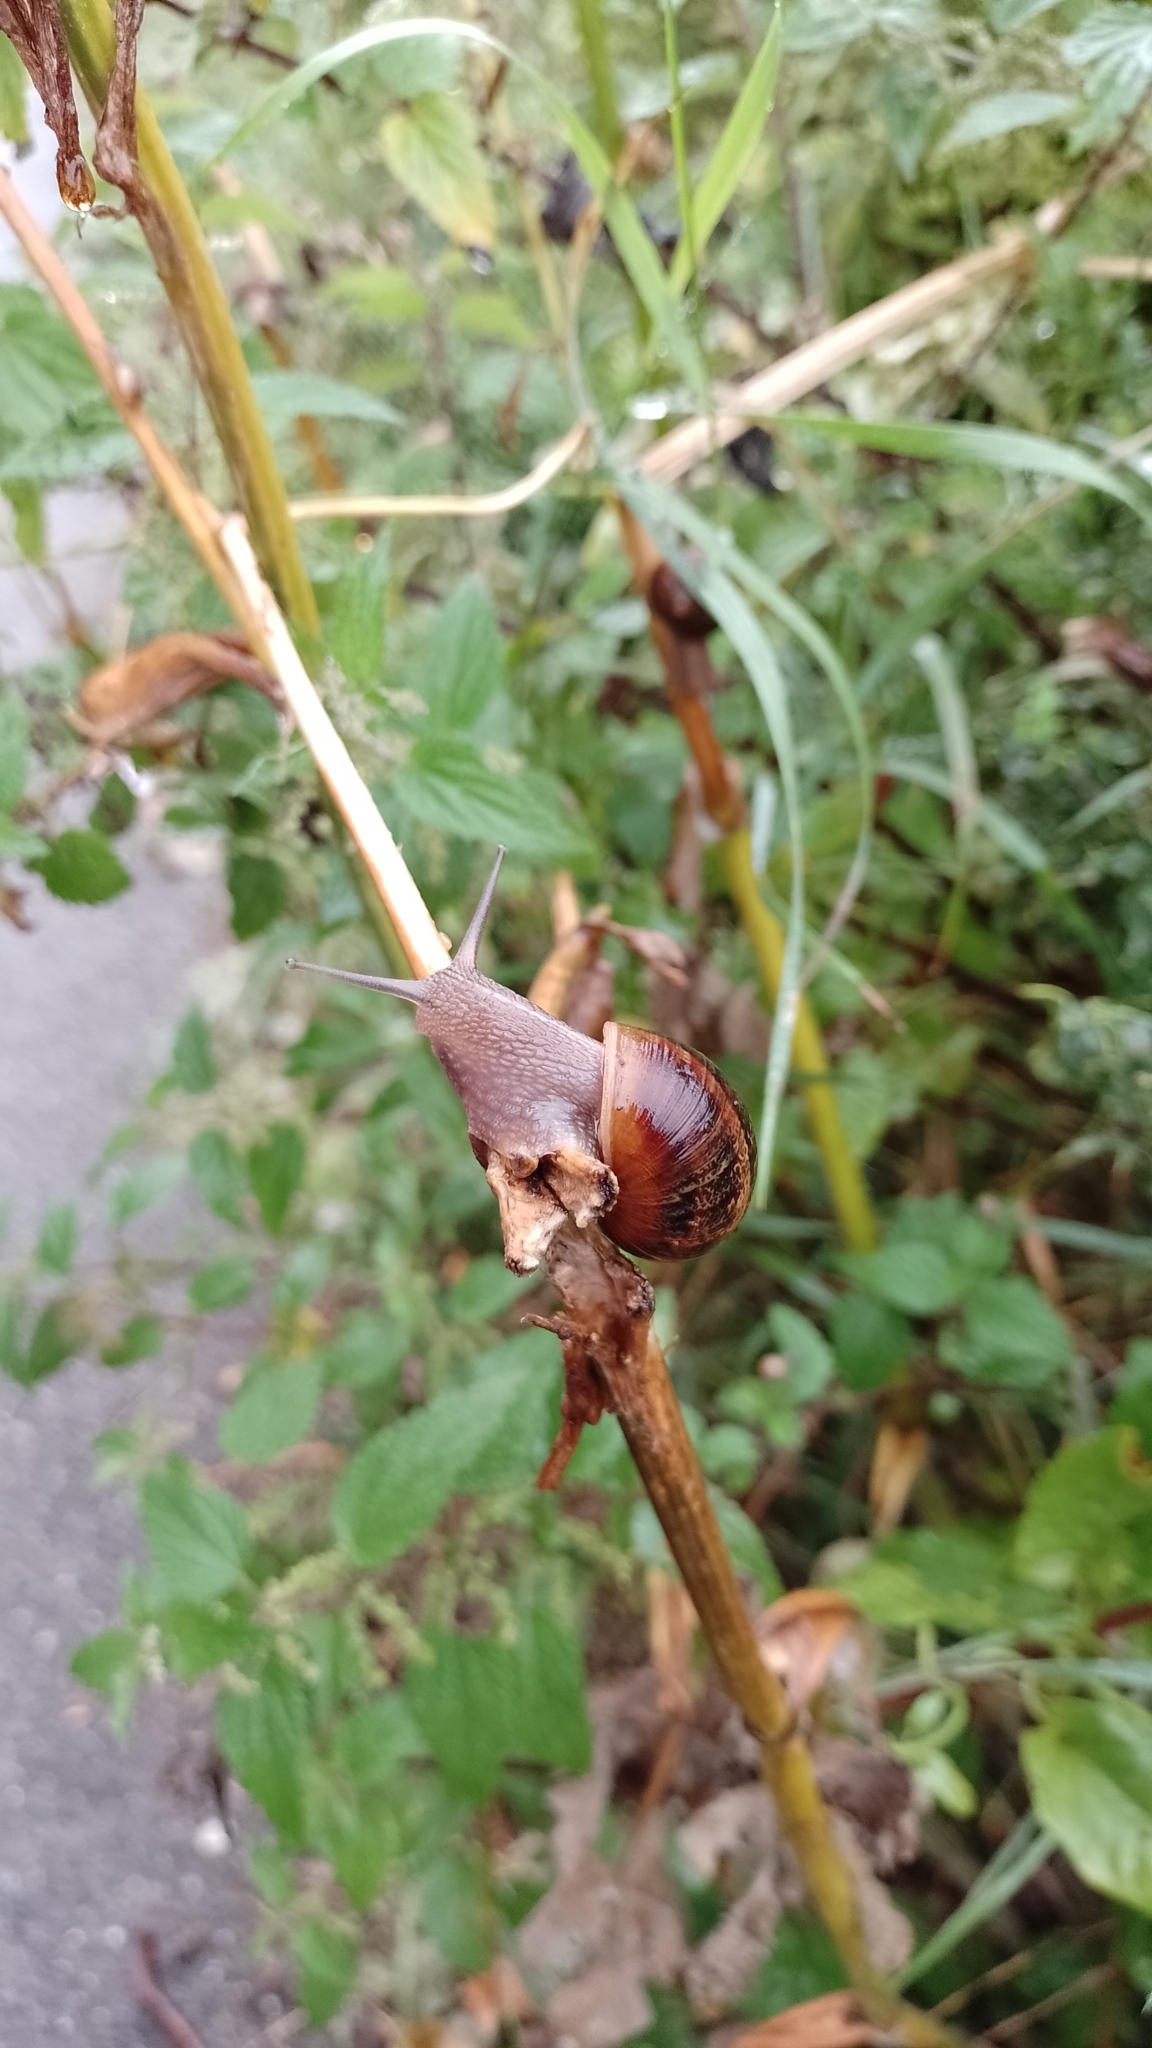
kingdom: Animalia
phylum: Mollusca
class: Gastropoda
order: Stylommatophora
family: Helicidae
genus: Cornu
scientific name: Cornu aspersum
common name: Brown garden snail
